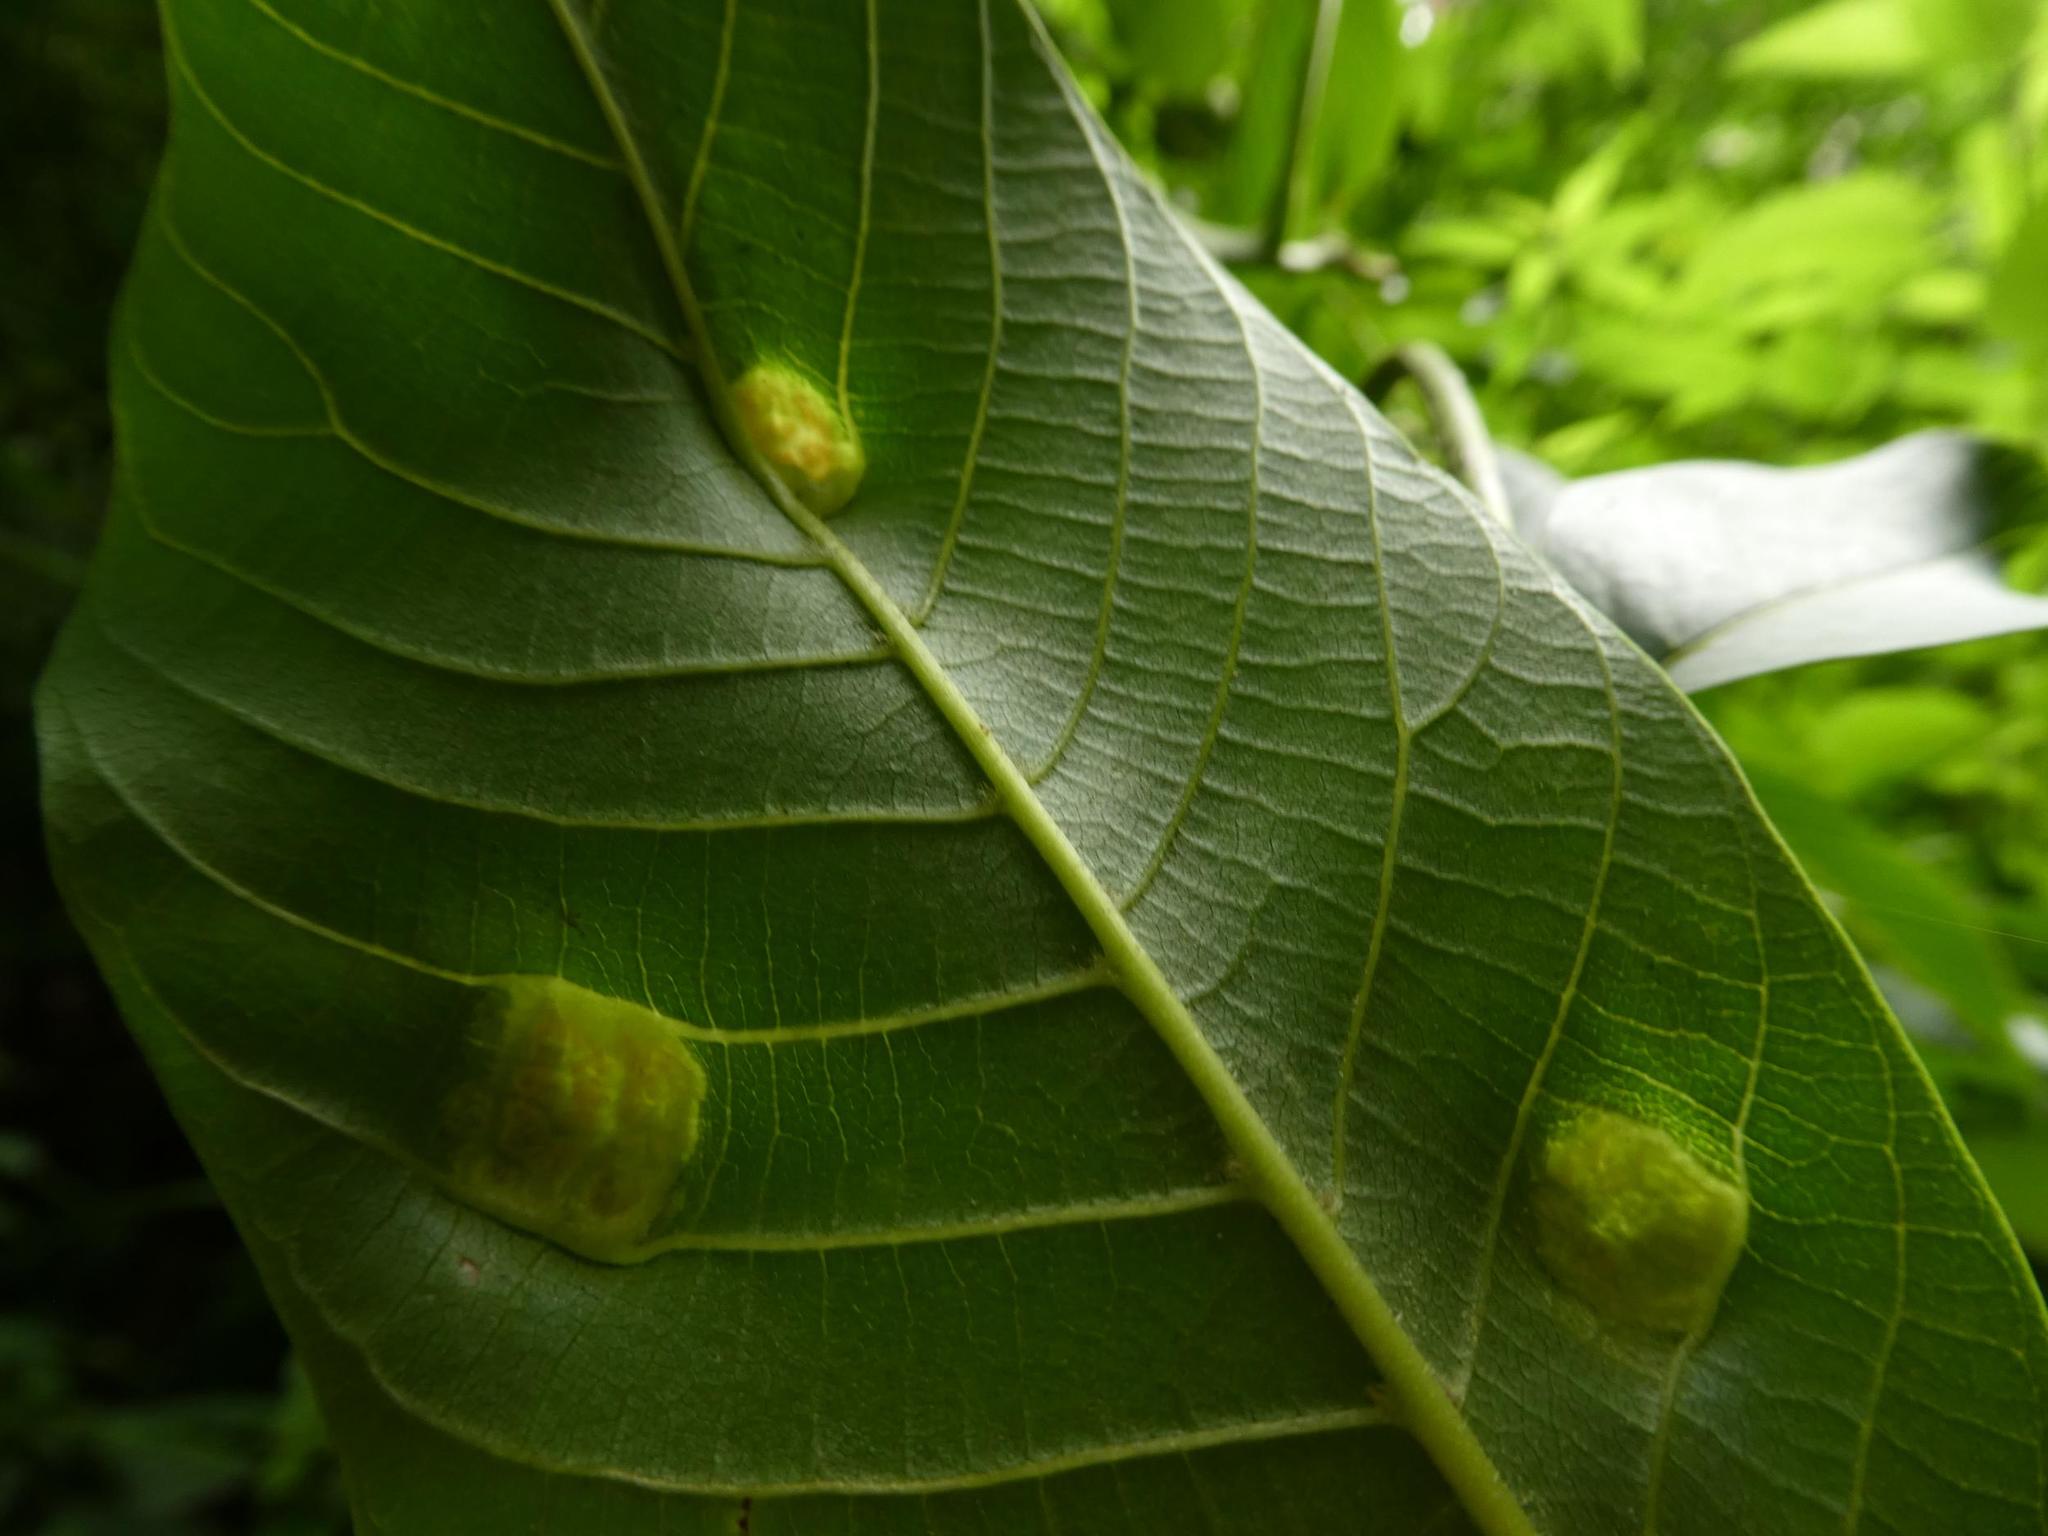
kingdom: Animalia
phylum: Arthropoda
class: Arachnida
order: Trombidiformes
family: Eriophyidae
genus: Aceria
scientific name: Aceria erinea
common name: Persian walnut erineum mite
